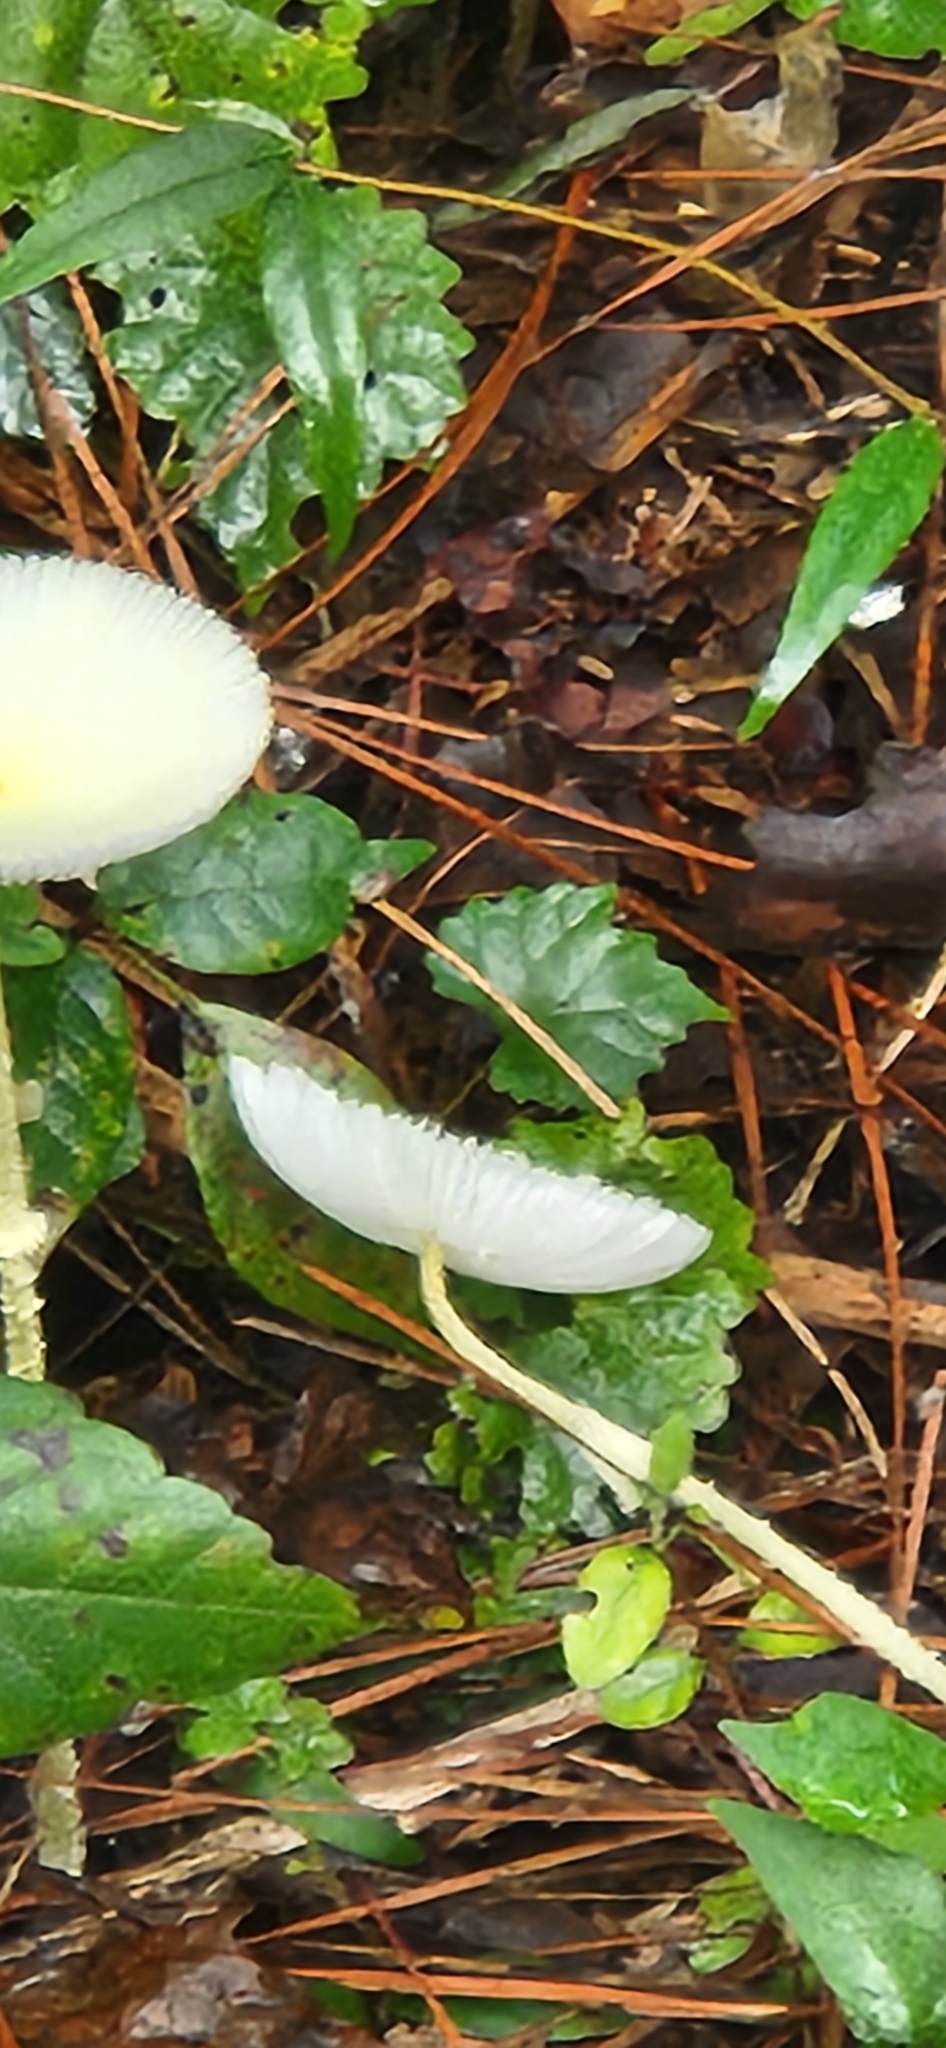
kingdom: Fungi
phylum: Basidiomycota
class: Agaricomycetes
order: Agaricales
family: Agaricaceae
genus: Leucocoprinus
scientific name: Leucocoprinus fragilissimus
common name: Fragile dapperling
